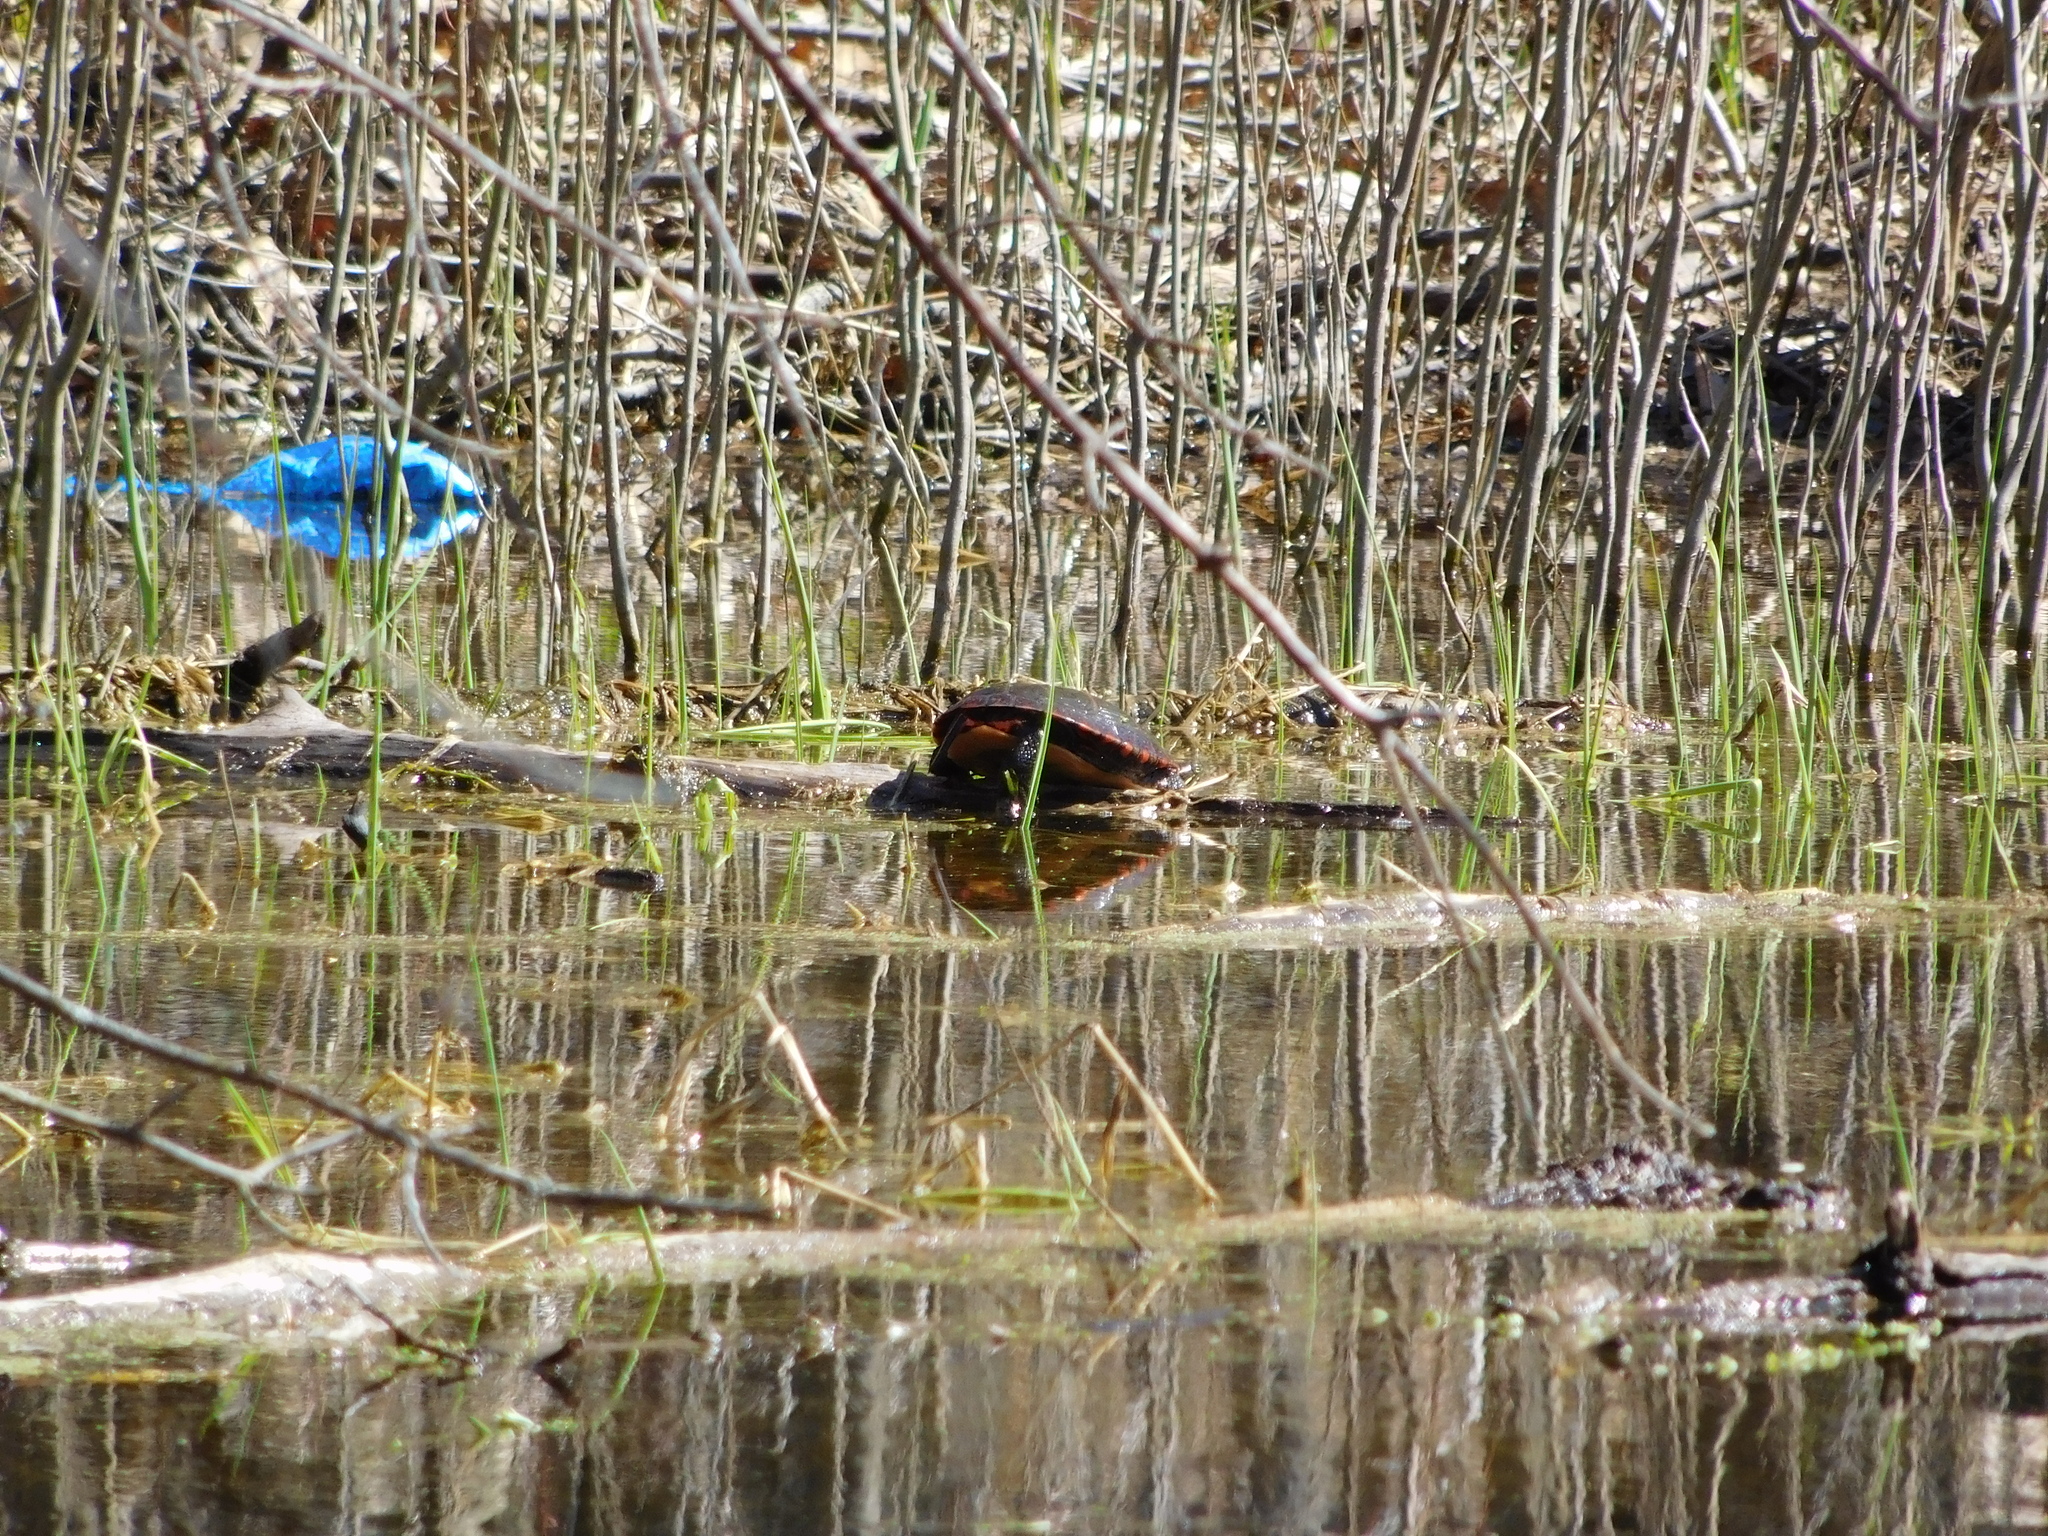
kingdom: Animalia
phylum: Chordata
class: Testudines
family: Emydidae
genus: Chrysemys
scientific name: Chrysemys picta
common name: Painted turtle
